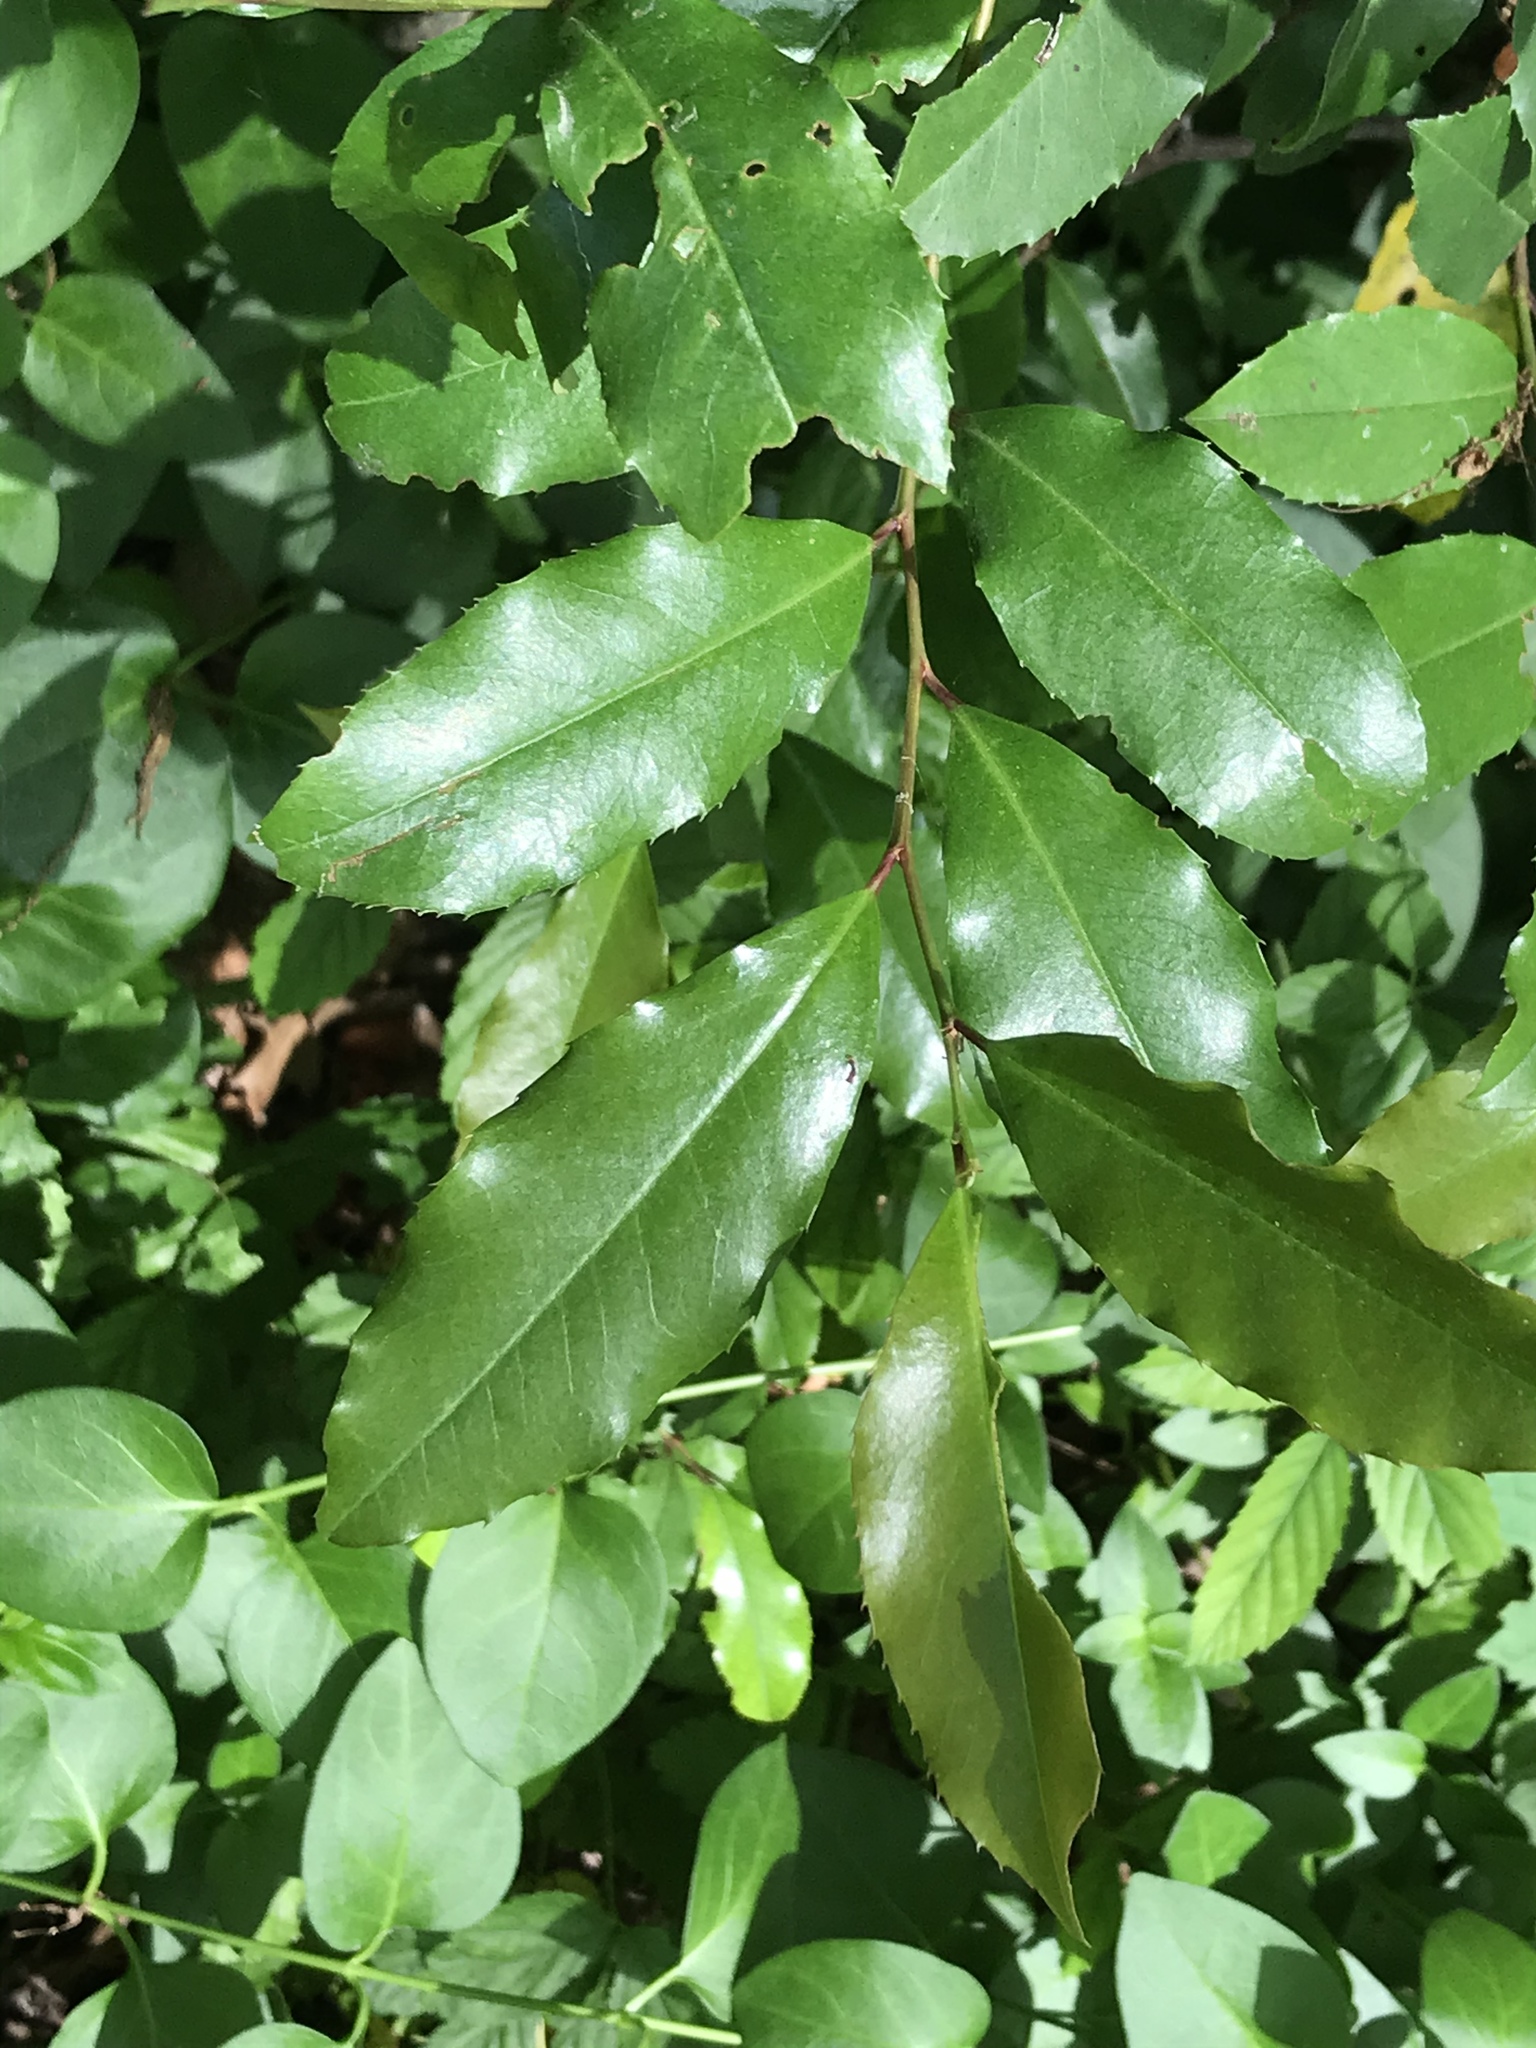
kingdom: Plantae
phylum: Tracheophyta
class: Magnoliopsida
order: Rosales
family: Rosaceae
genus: Prunus
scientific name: Prunus caroliniana
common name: Carolina laurel cherry
